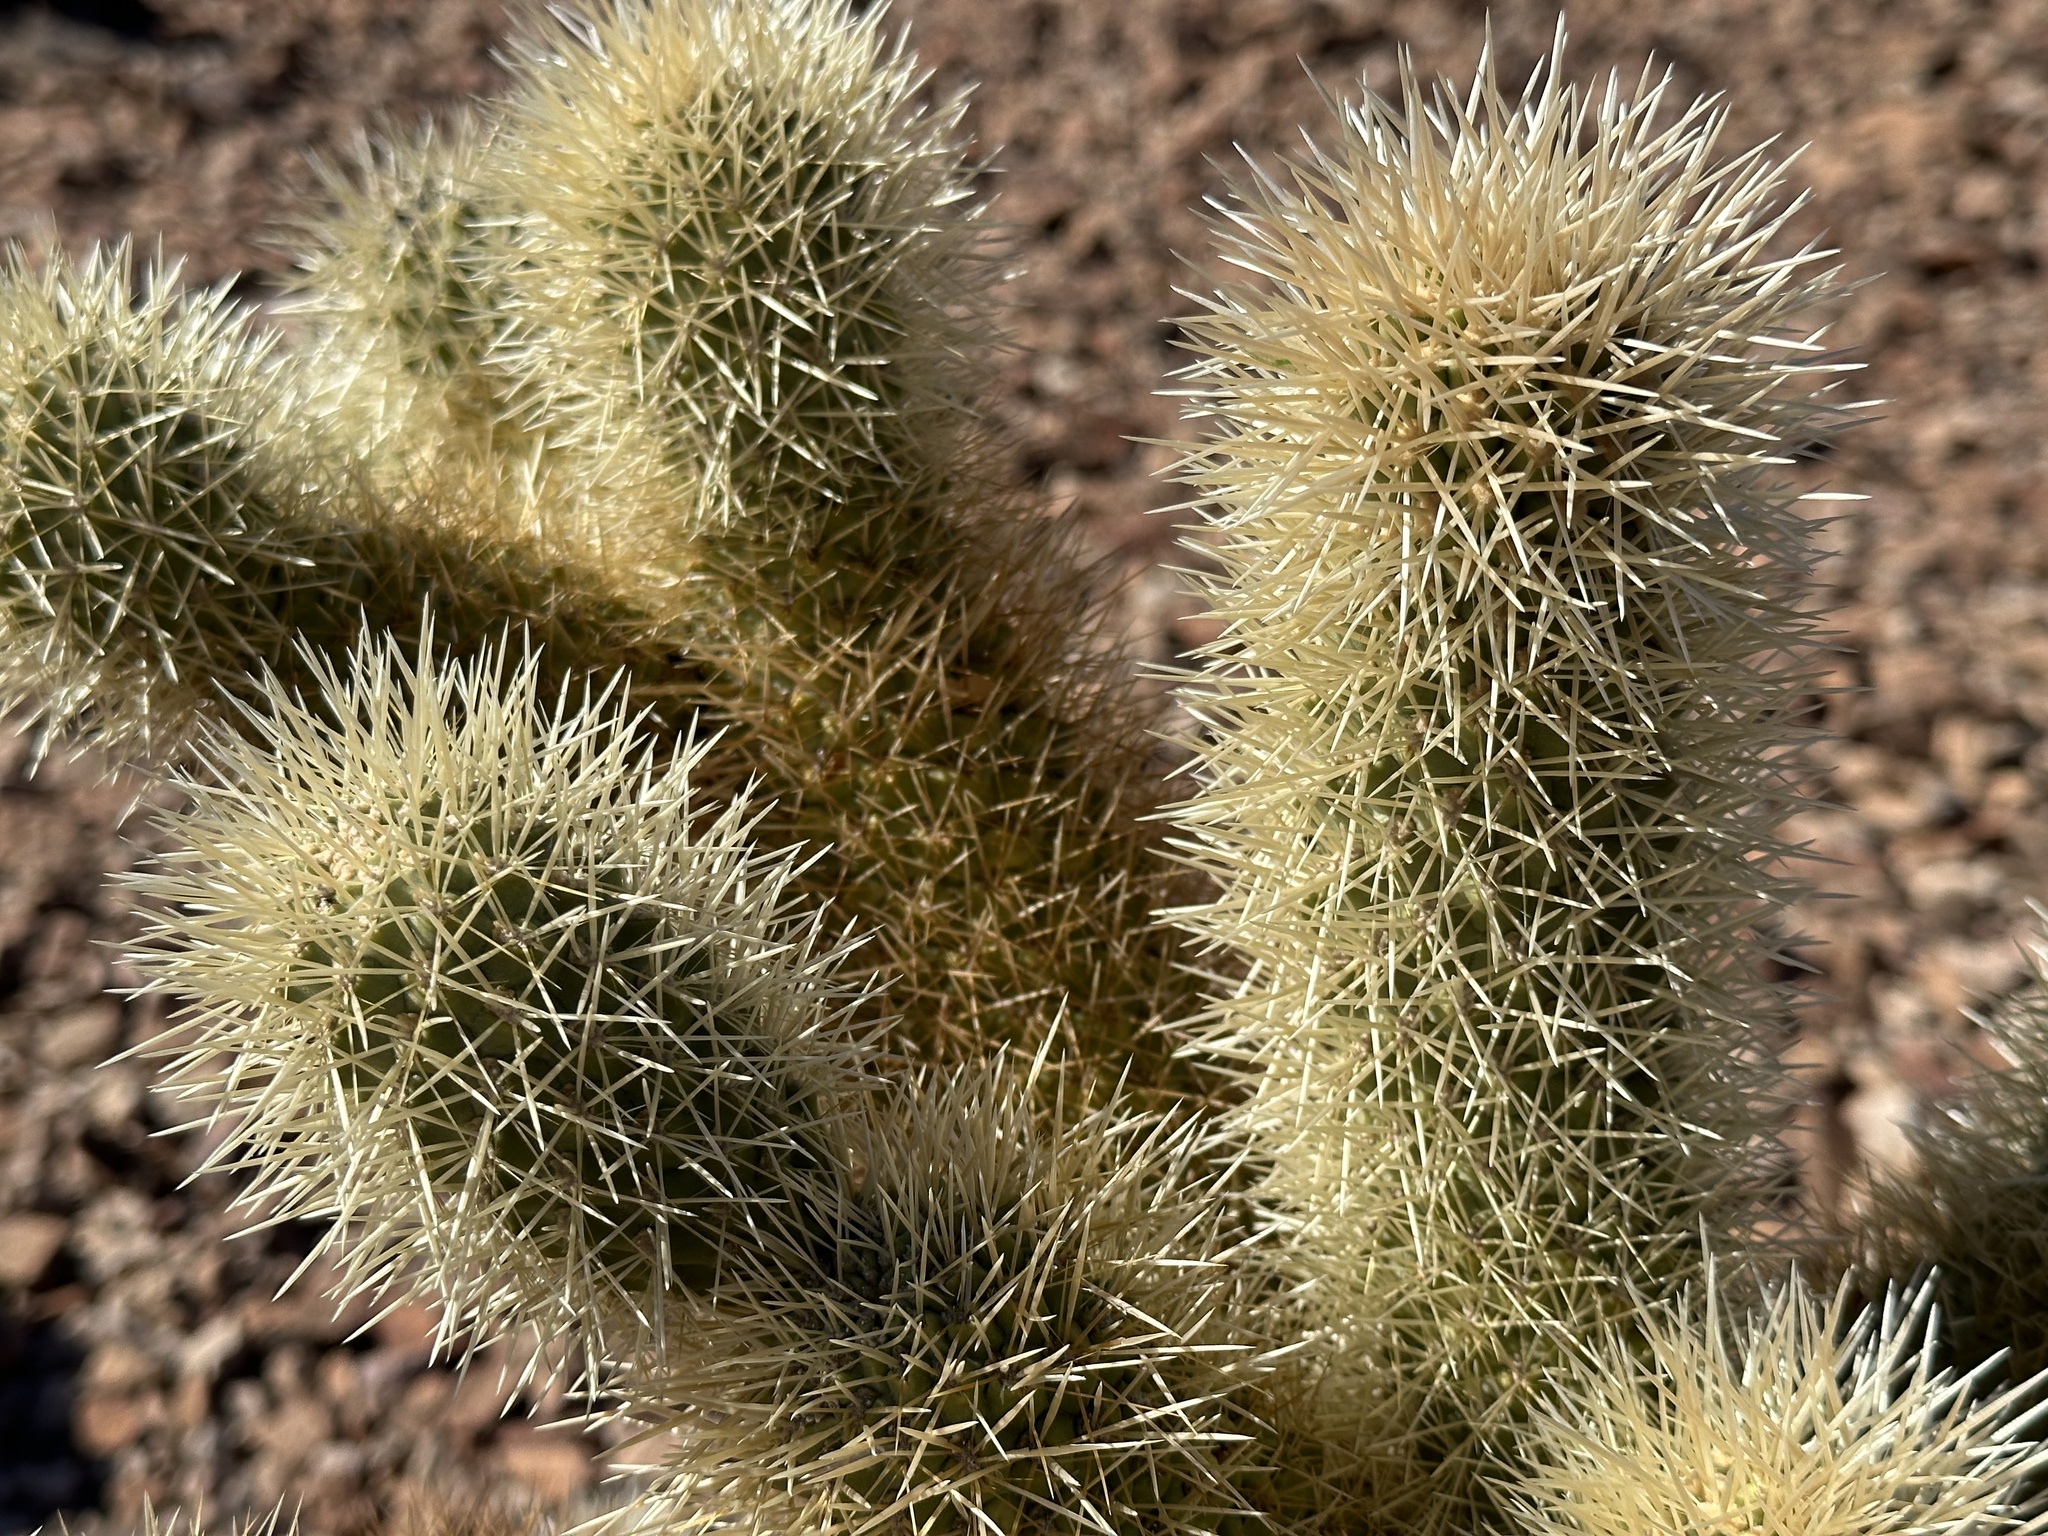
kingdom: Plantae
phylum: Tracheophyta
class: Magnoliopsida
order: Caryophyllales
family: Cactaceae
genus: Cylindropuntia
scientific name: Cylindropuntia fosbergii
